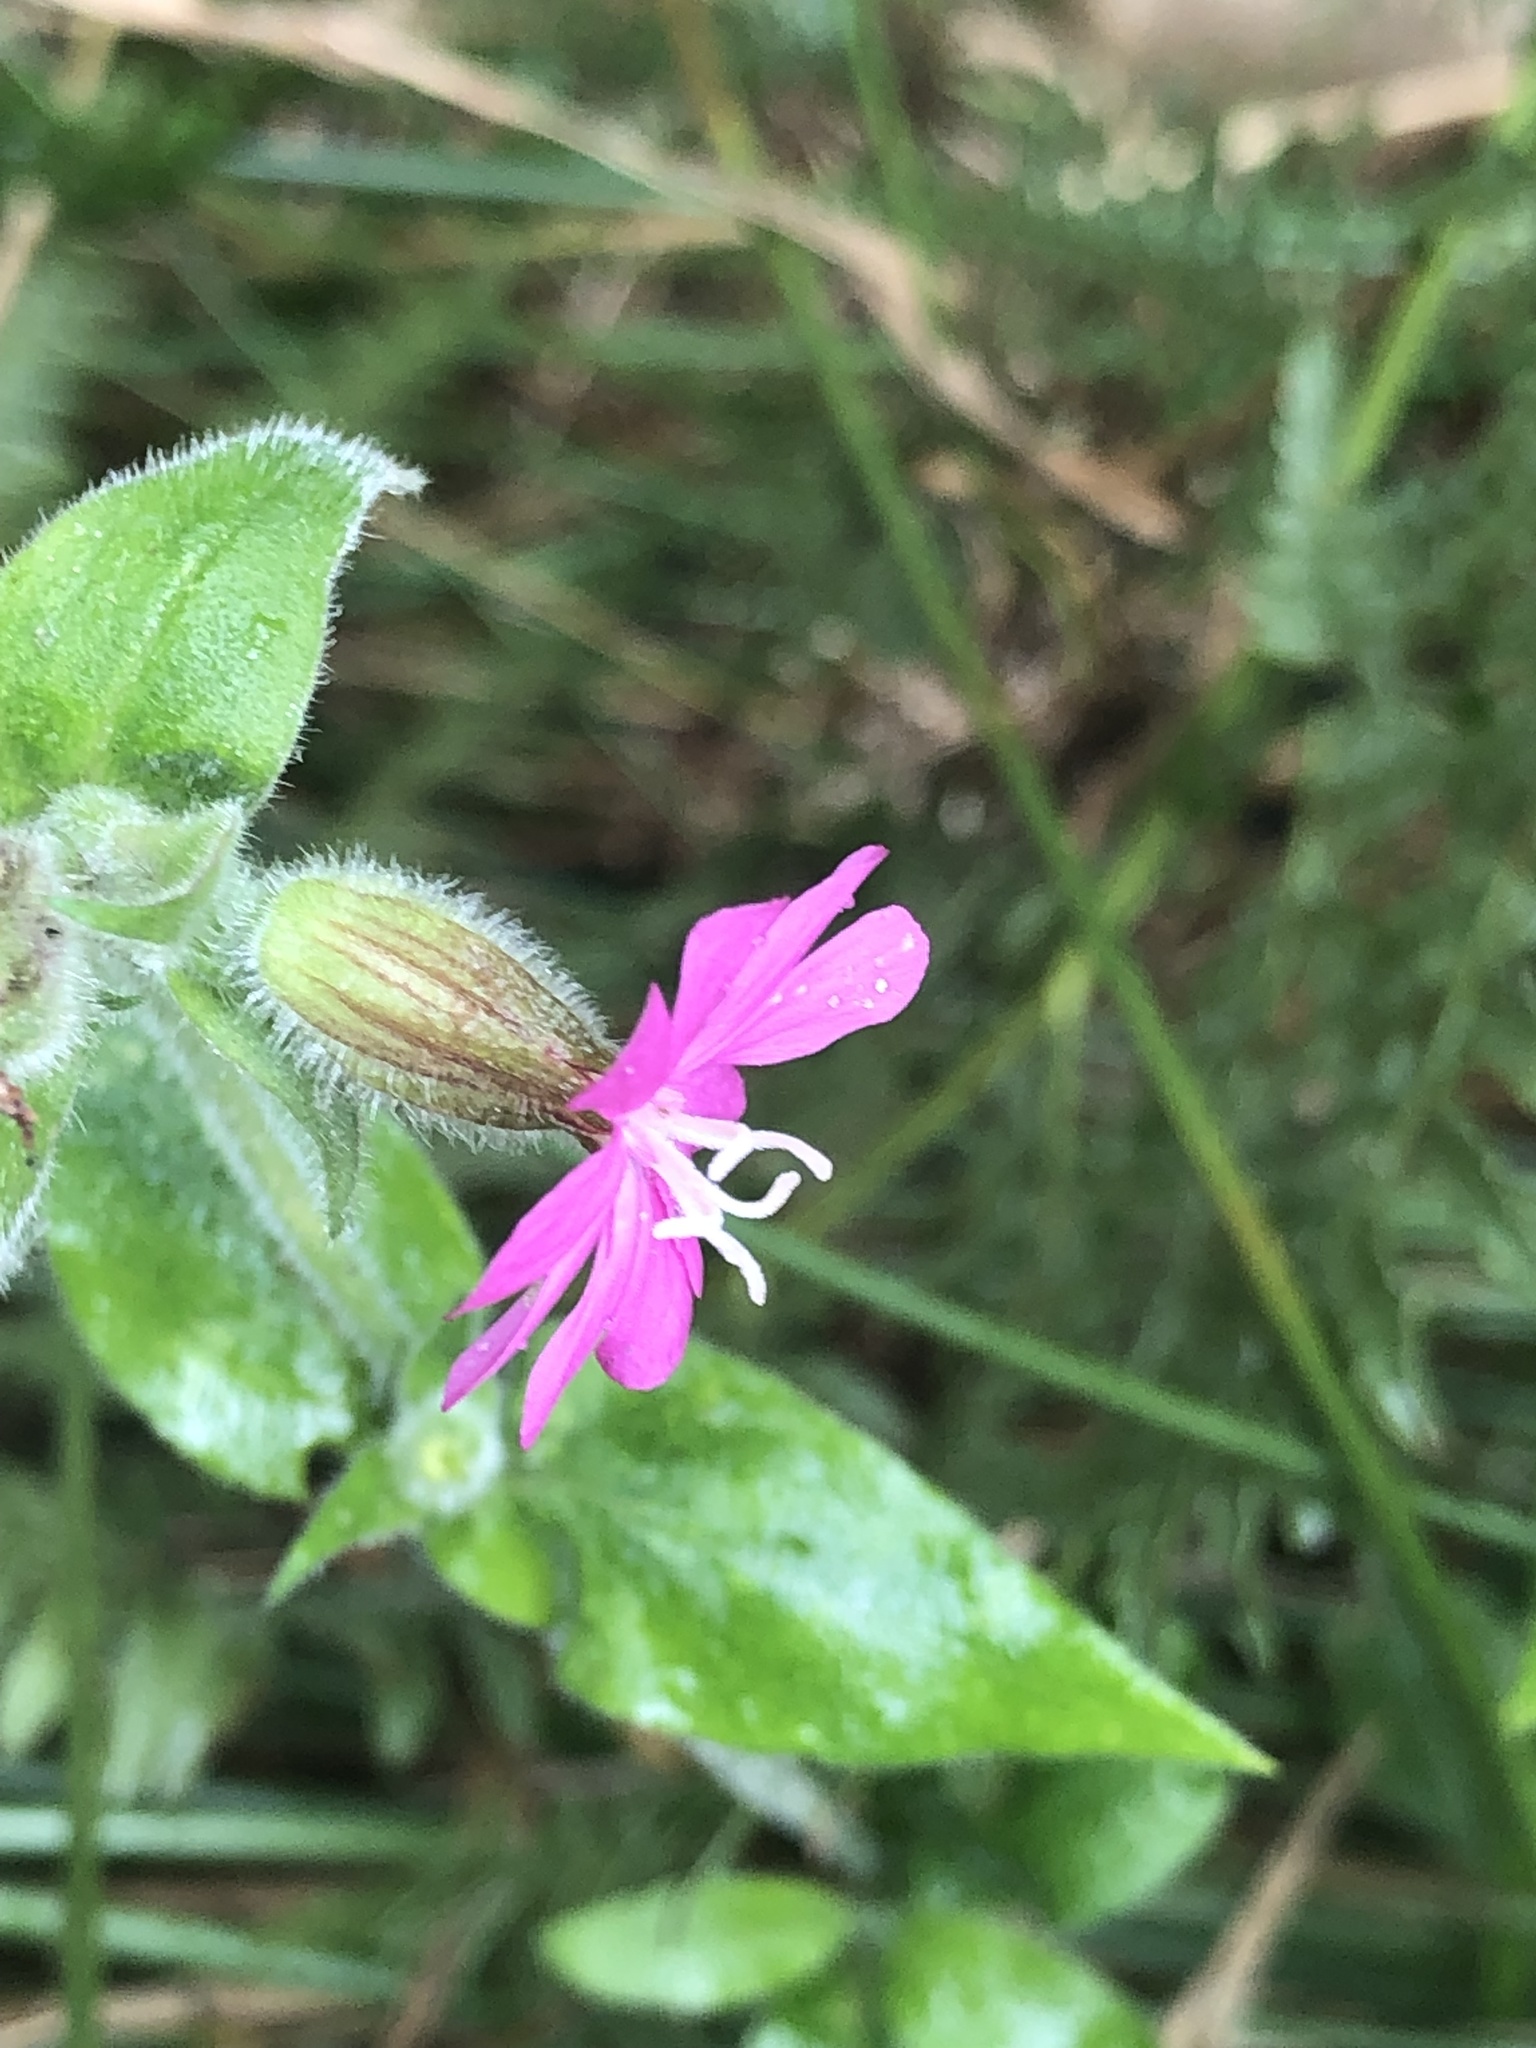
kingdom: Plantae
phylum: Tracheophyta
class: Magnoliopsida
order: Caryophyllales
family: Caryophyllaceae
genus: Silene
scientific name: Silene dioica
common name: Red campion
